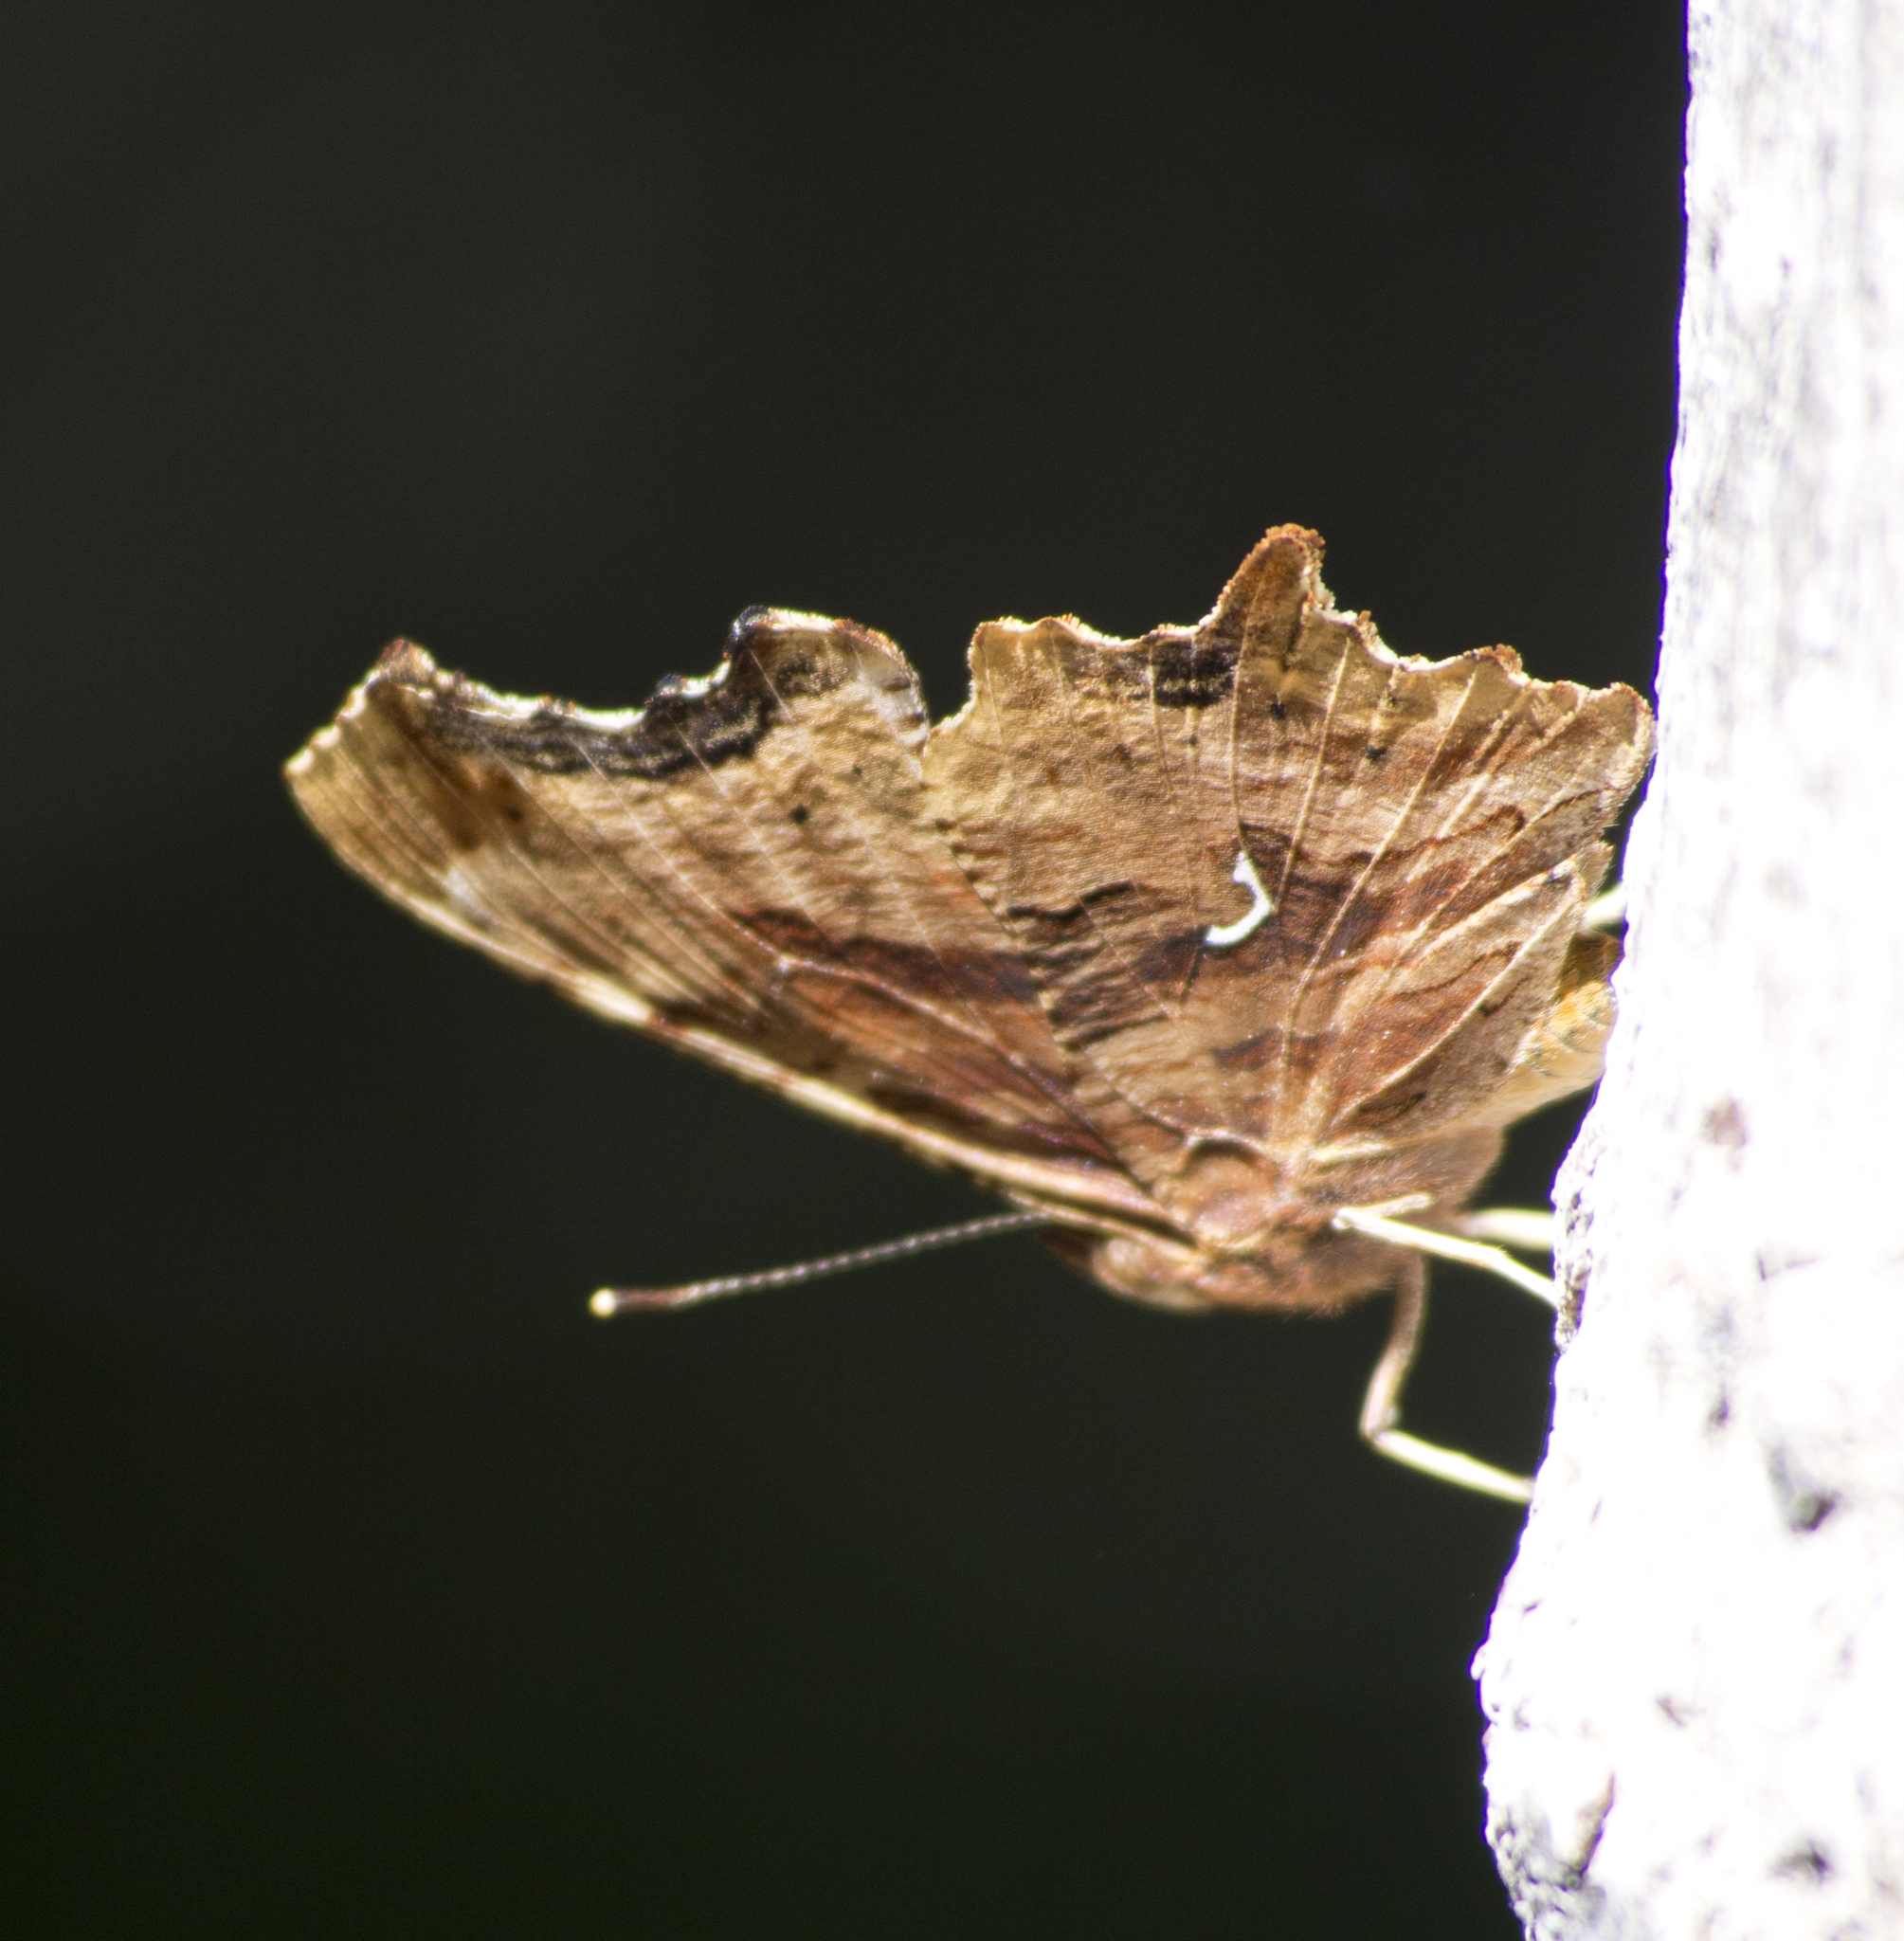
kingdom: Animalia
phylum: Arthropoda
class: Insecta
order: Lepidoptera
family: Nymphalidae
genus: Polygonia
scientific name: Polygonia satyrus
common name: Satyr angle wing
